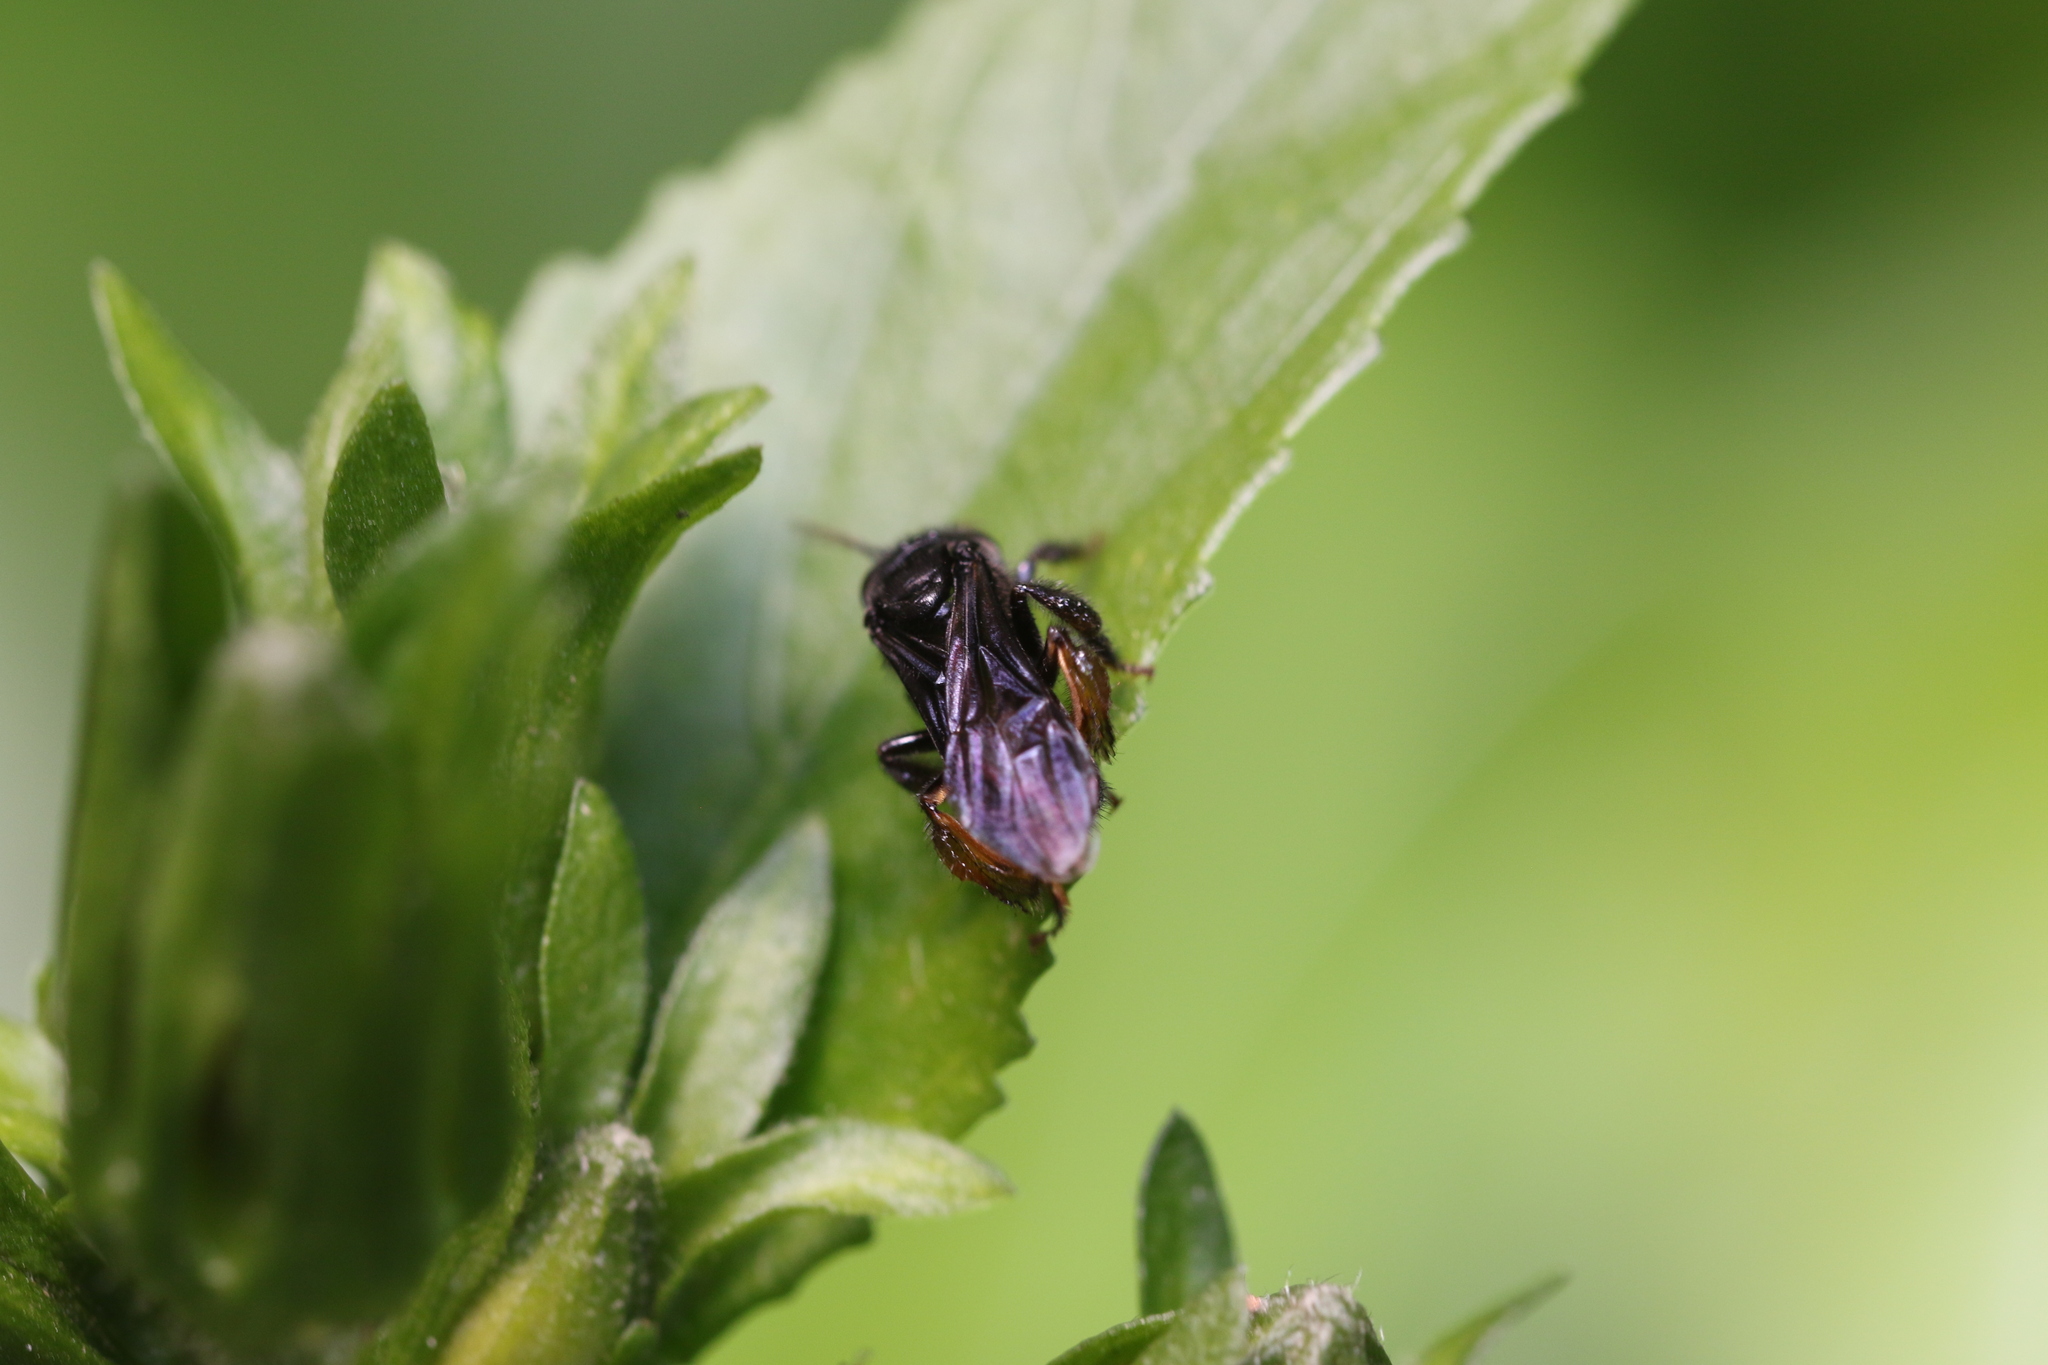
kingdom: Animalia
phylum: Arthropoda
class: Insecta
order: Hymenoptera
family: Apidae
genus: Trigona
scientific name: Trigona spinipes
